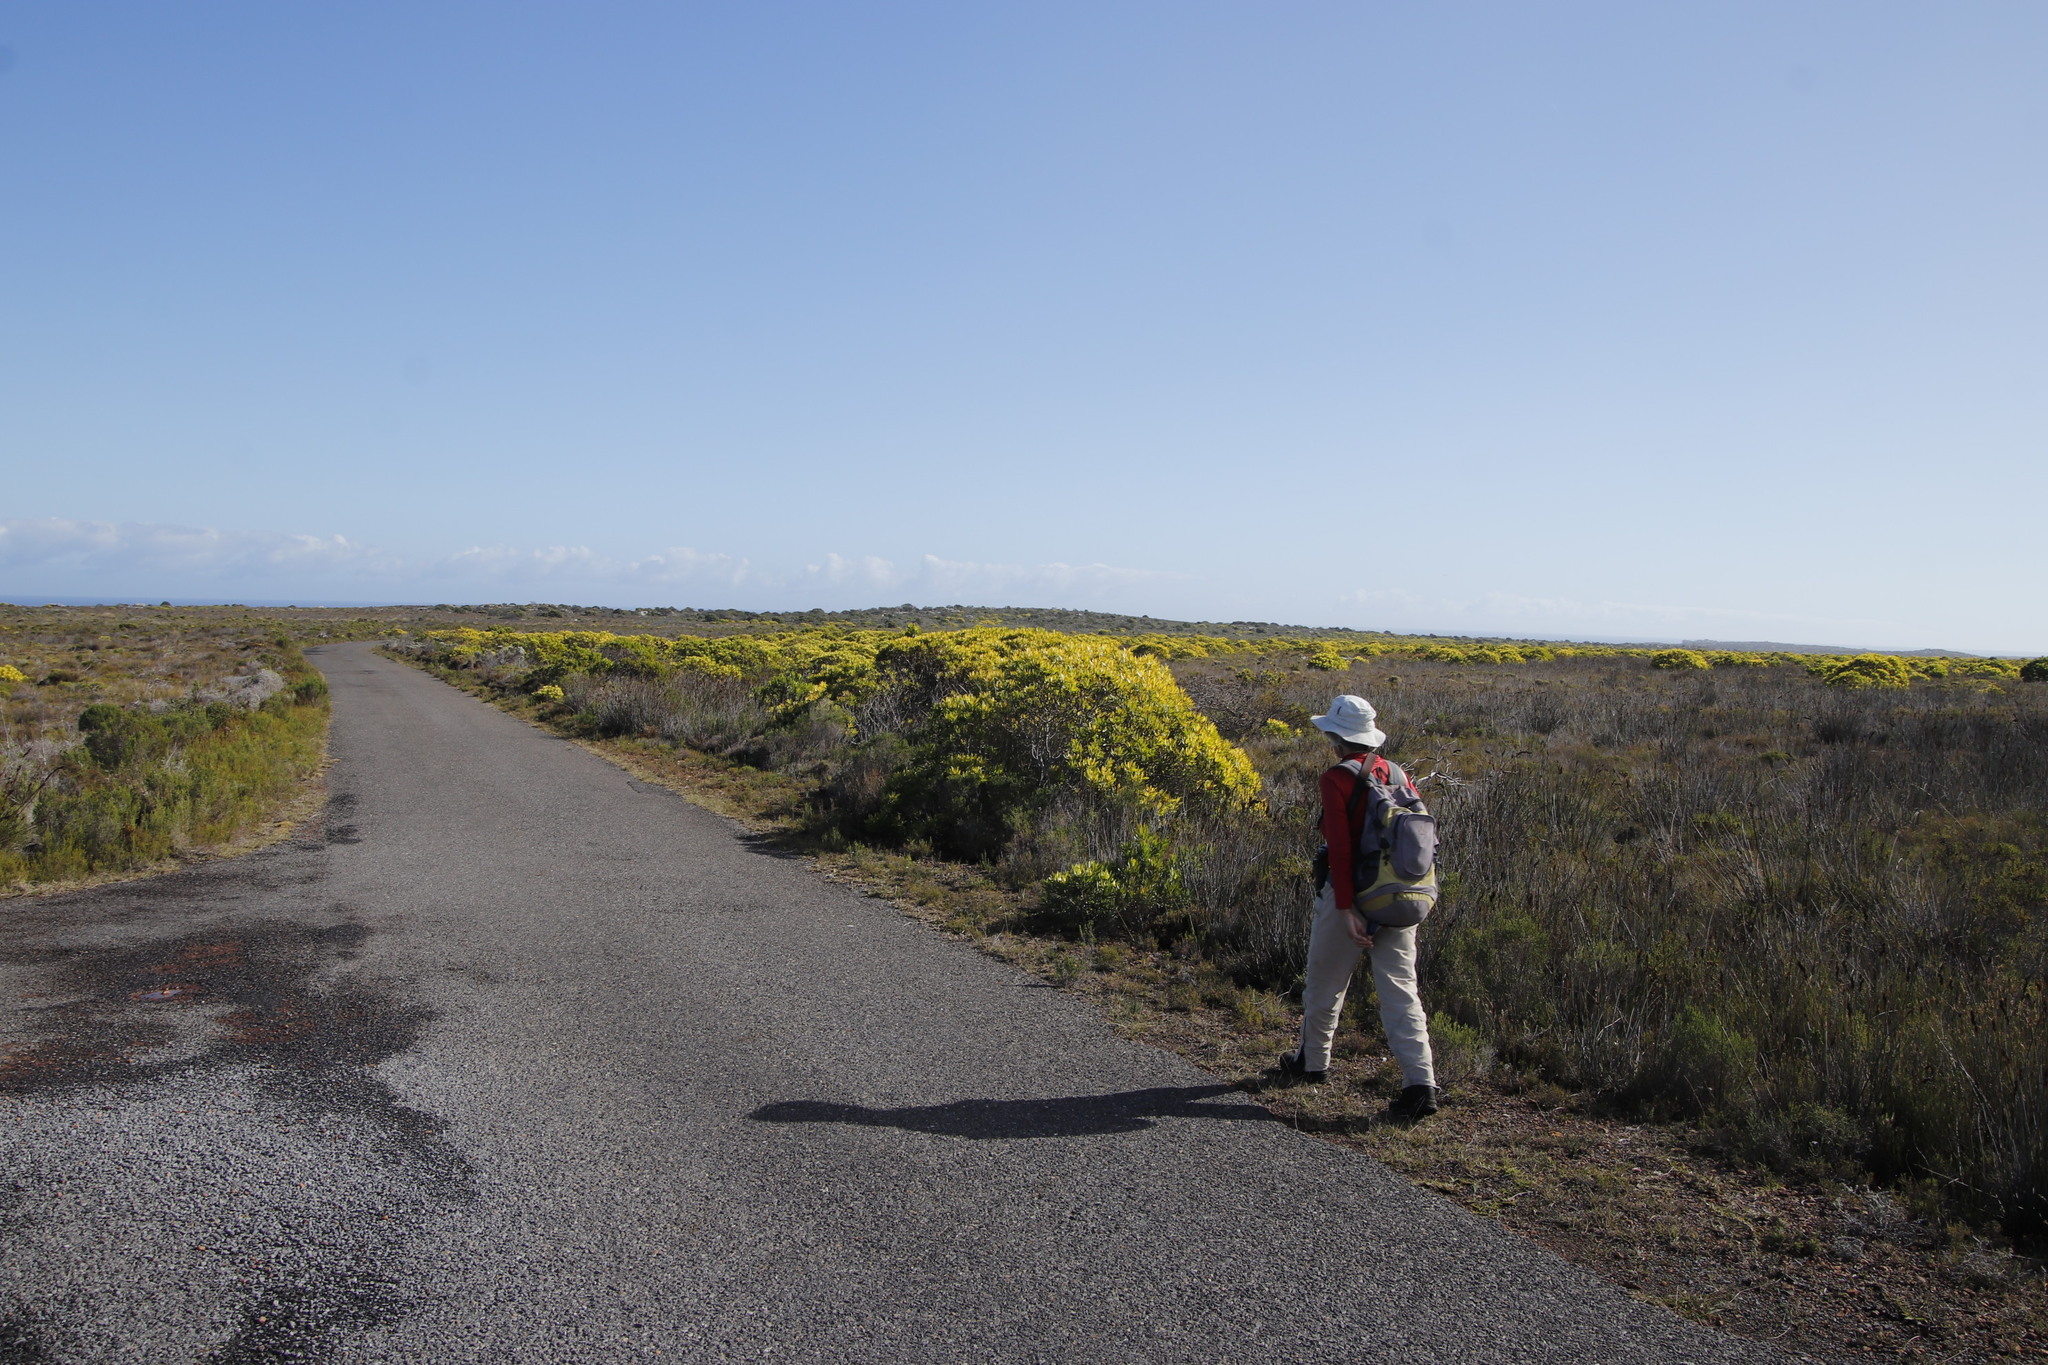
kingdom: Plantae
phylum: Tracheophyta
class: Magnoliopsida
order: Proteales
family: Proteaceae
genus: Leucadendron
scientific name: Leucadendron laureolum
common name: Golden sunshinebush
